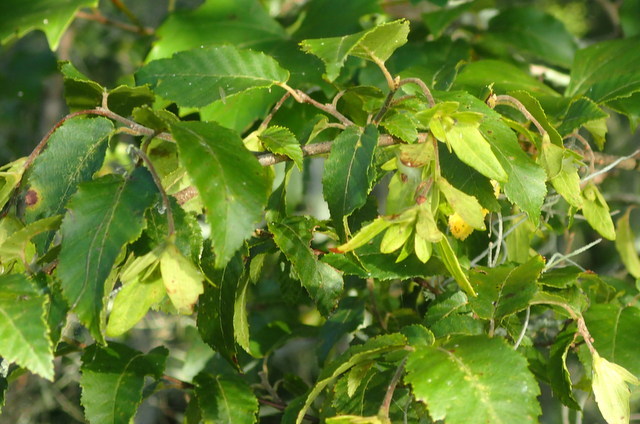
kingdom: Plantae
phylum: Tracheophyta
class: Magnoliopsida
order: Fagales
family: Betulaceae
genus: Carpinus
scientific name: Carpinus caroliniana
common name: American hornbeam
